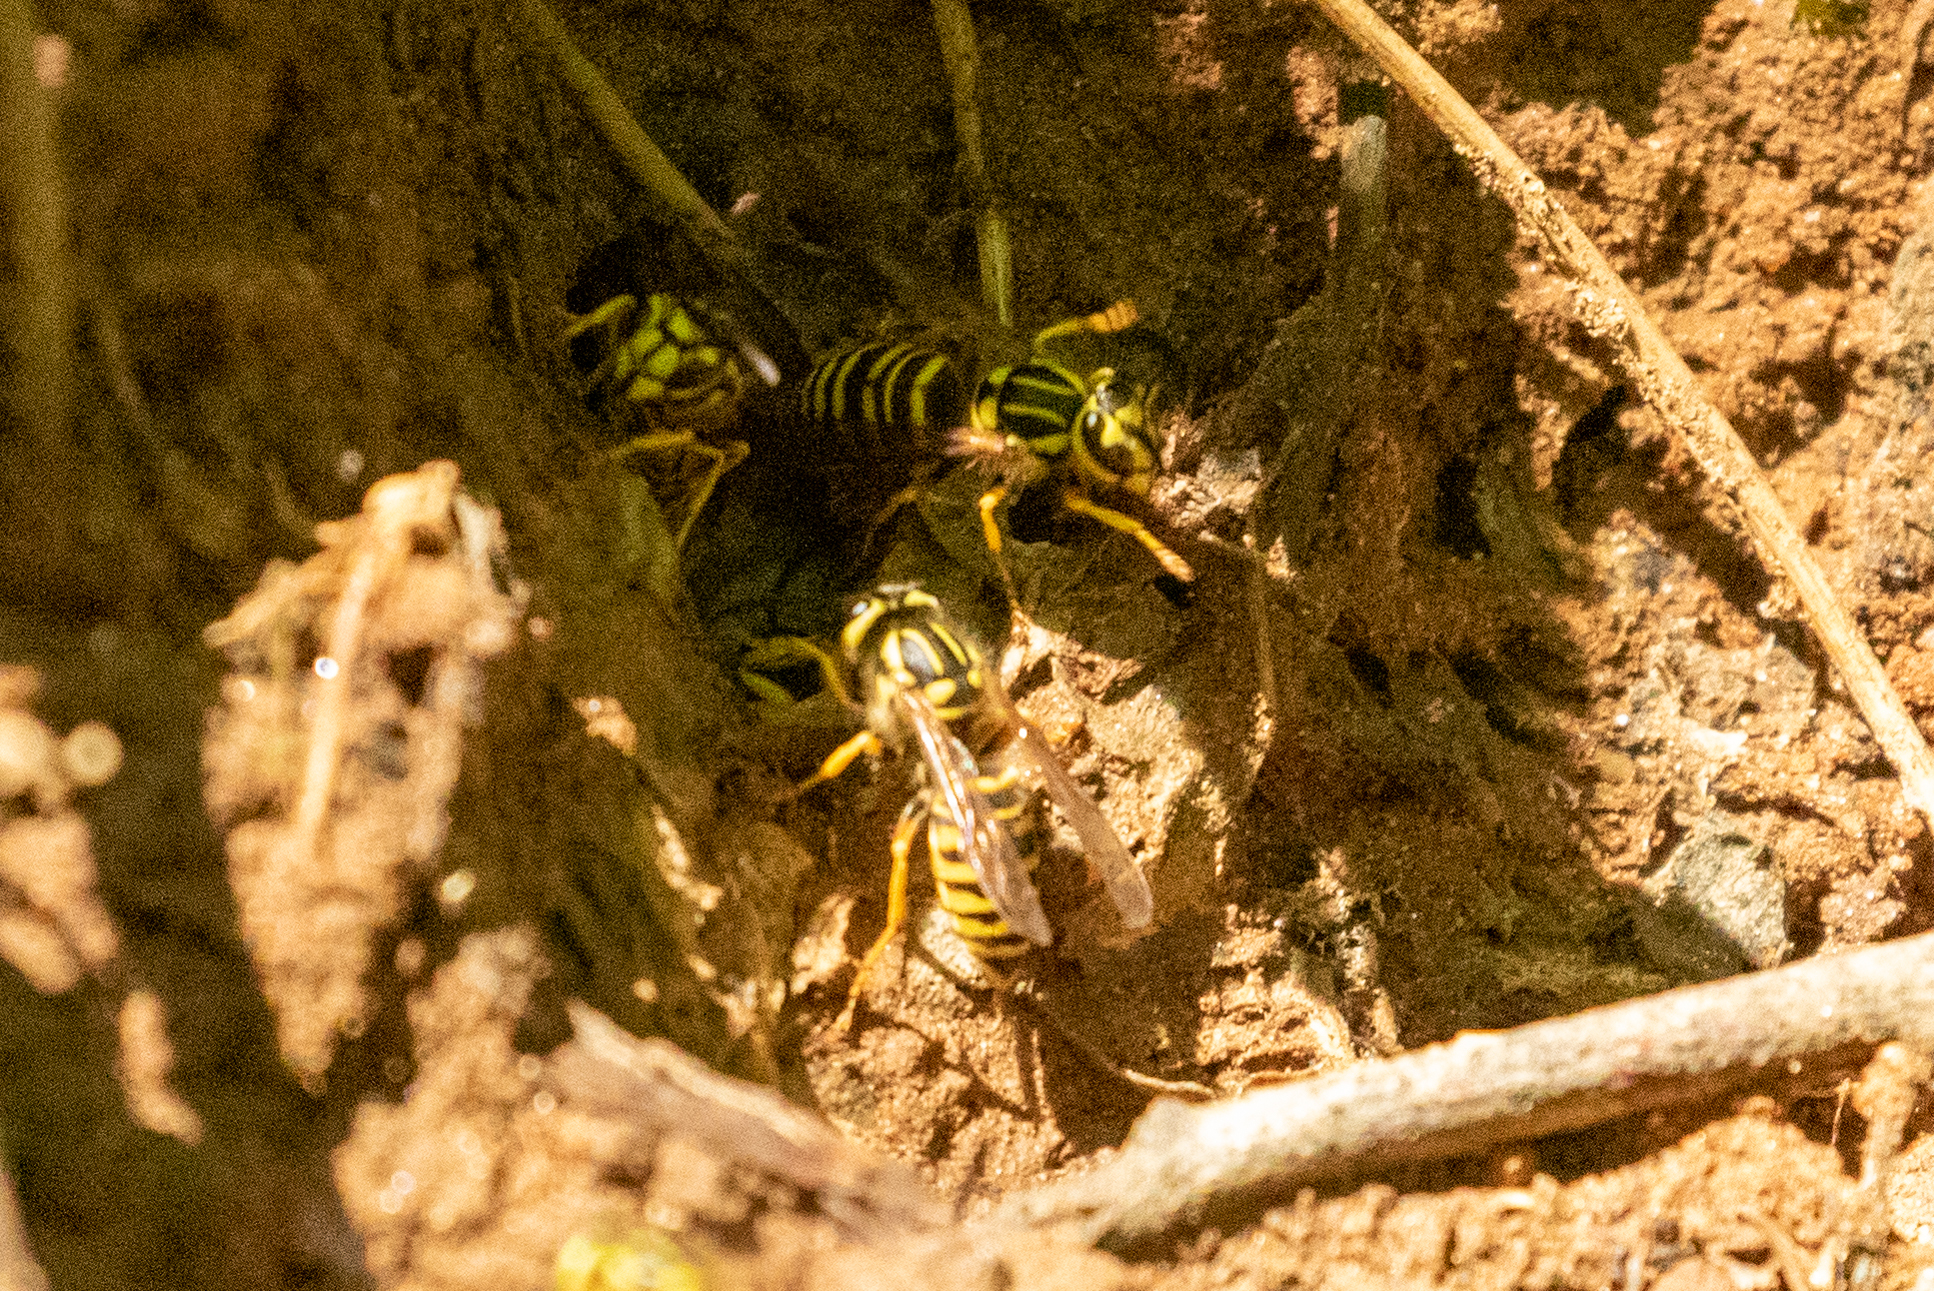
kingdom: Animalia
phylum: Arthropoda
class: Insecta
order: Hymenoptera
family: Vespidae
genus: Vespula
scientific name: Vespula squamosa
